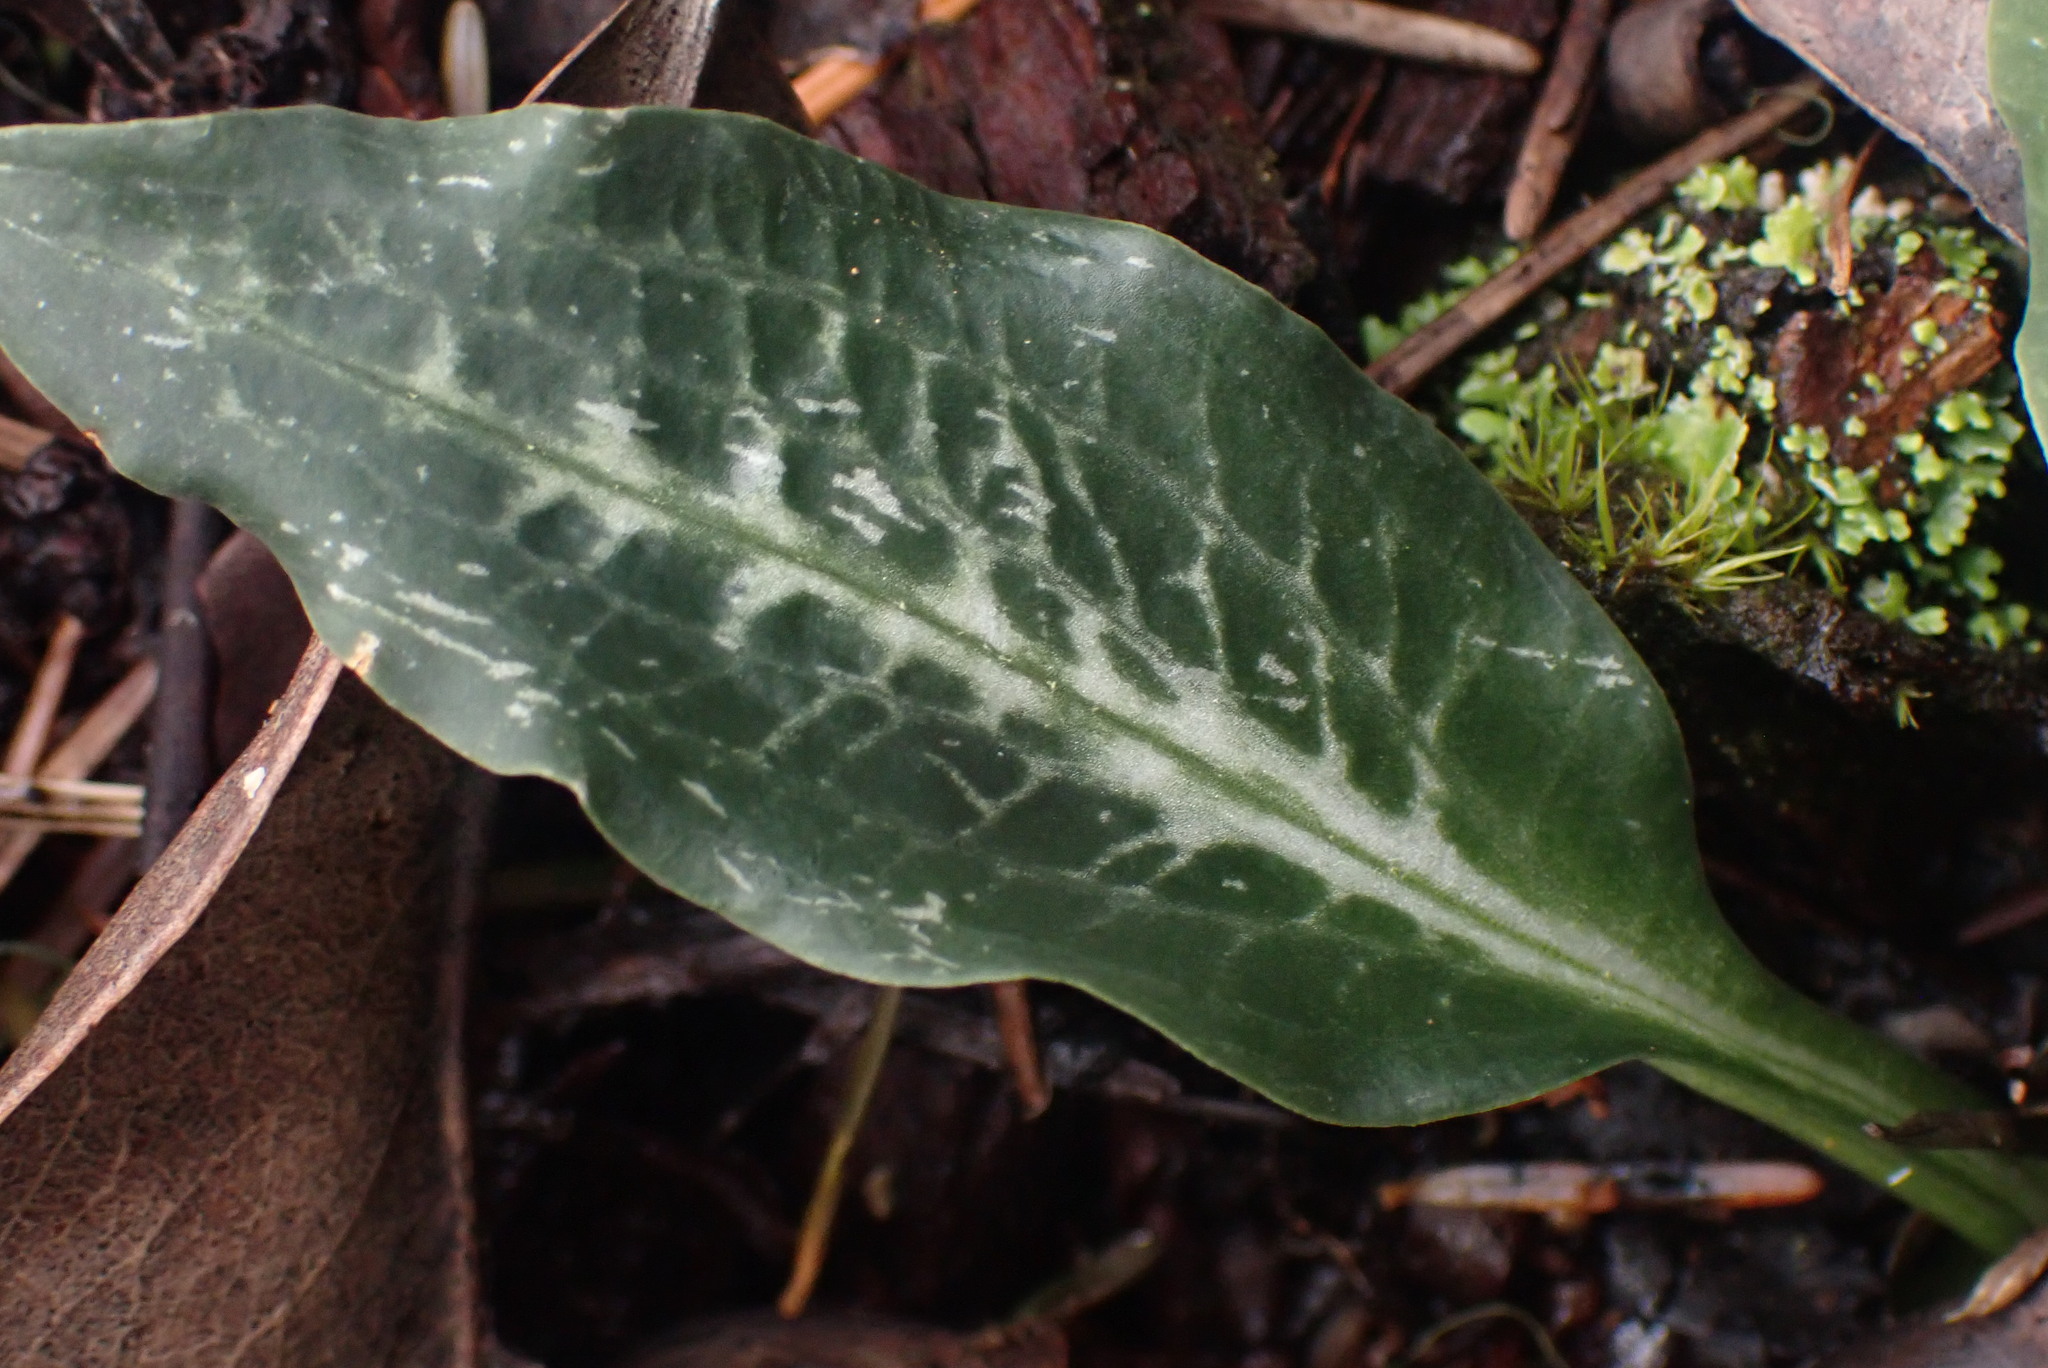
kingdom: Plantae
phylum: Tracheophyta
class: Liliopsida
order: Asparagales
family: Orchidaceae
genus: Goodyera
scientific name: Goodyera oblongifolia
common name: Giant rattlesnake-plantain
